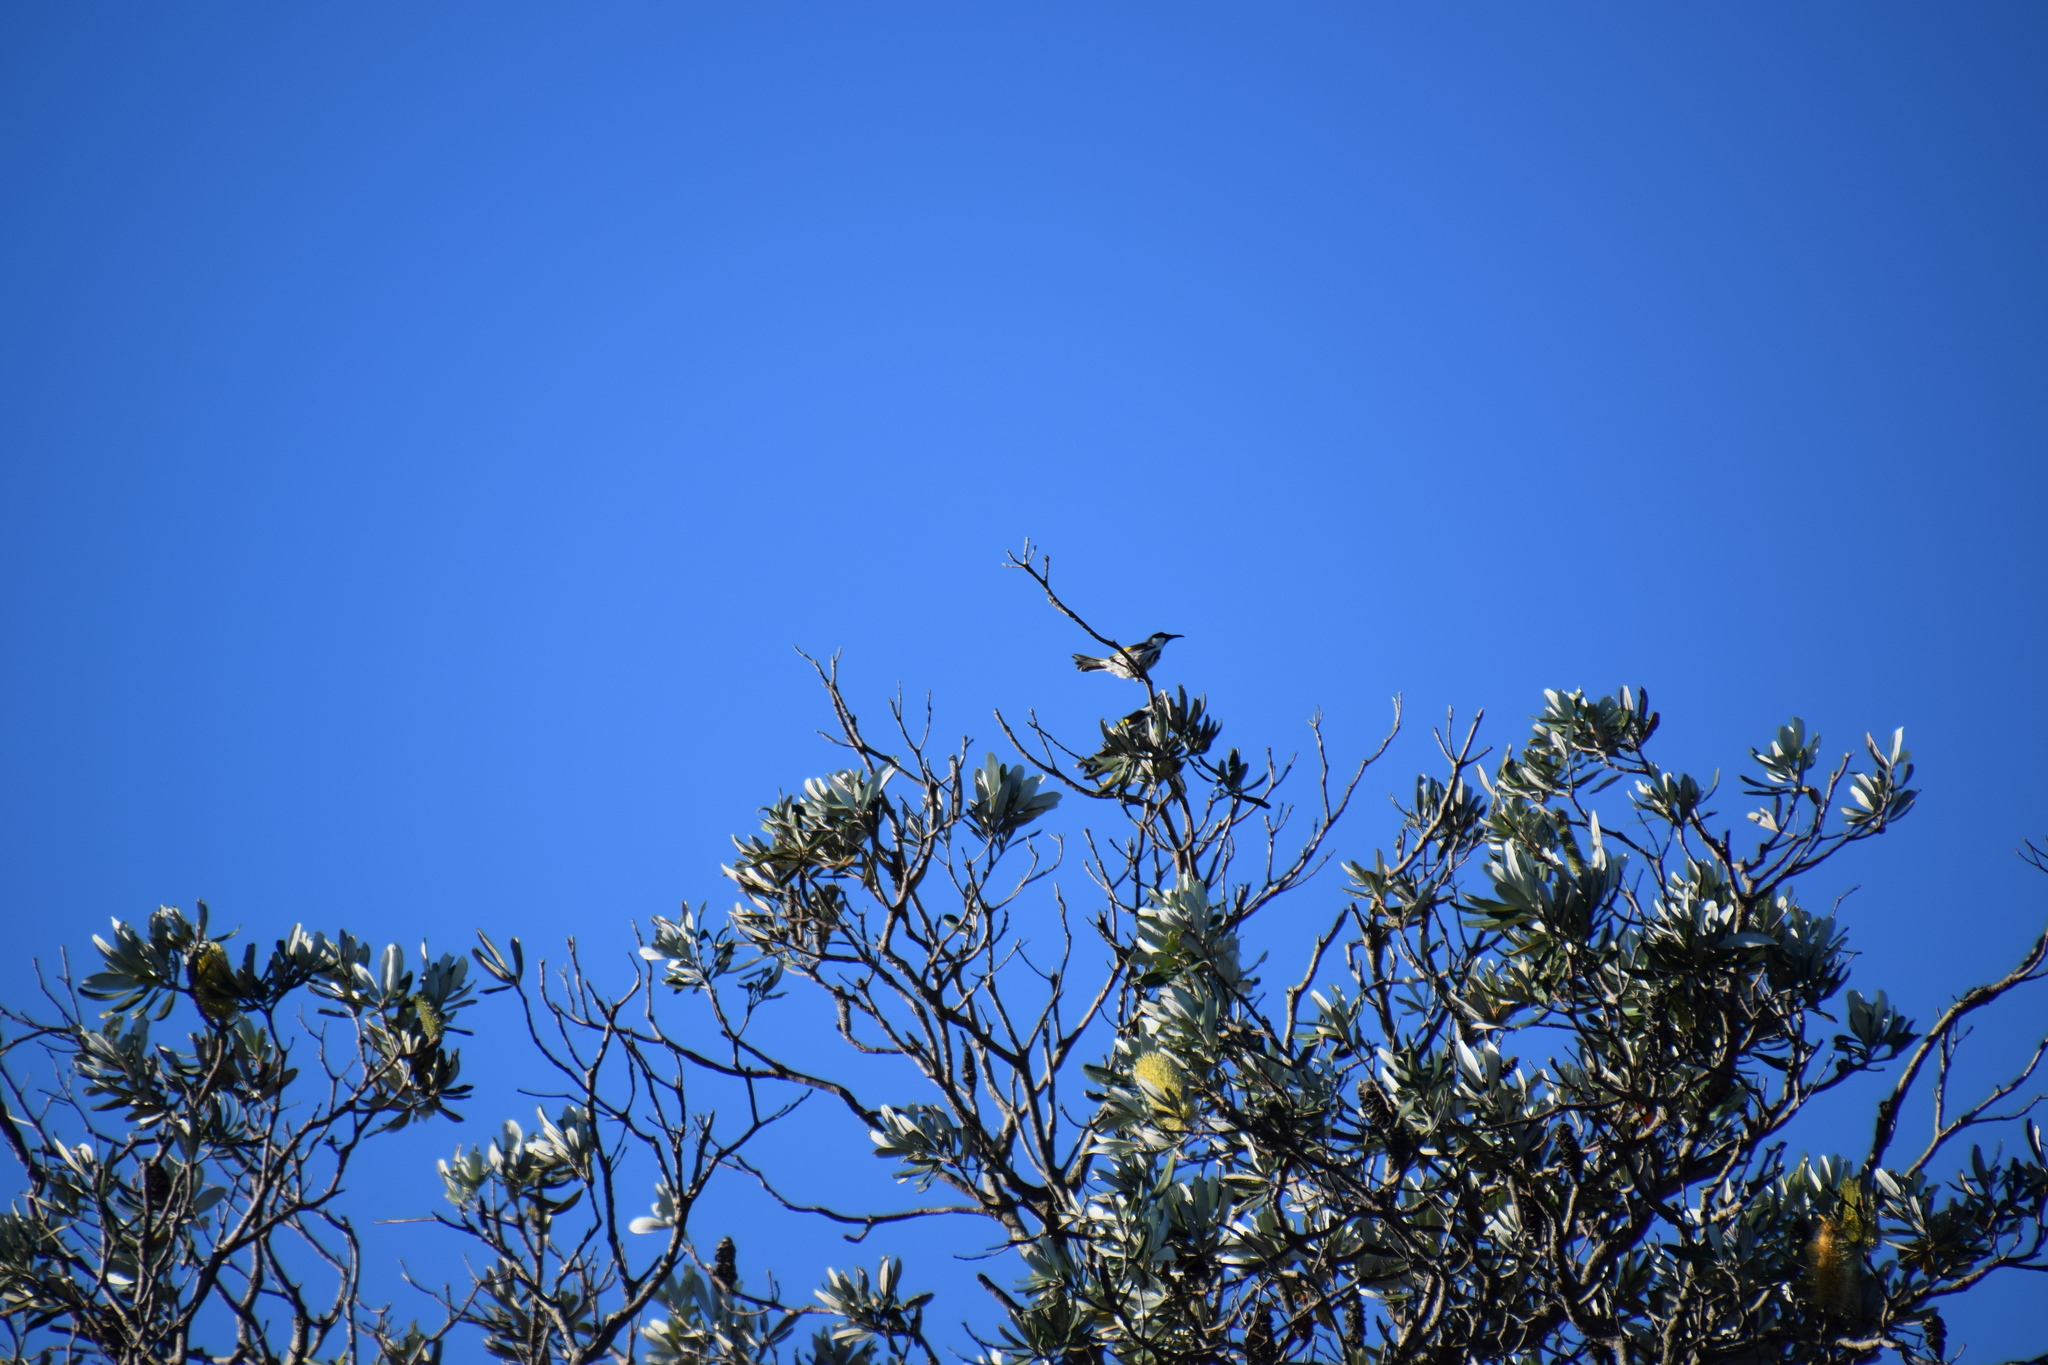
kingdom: Animalia
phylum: Chordata
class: Aves
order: Passeriformes
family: Meliphagidae
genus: Phylidonyris
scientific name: Phylidonyris niger
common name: White-cheeked honeyeater
